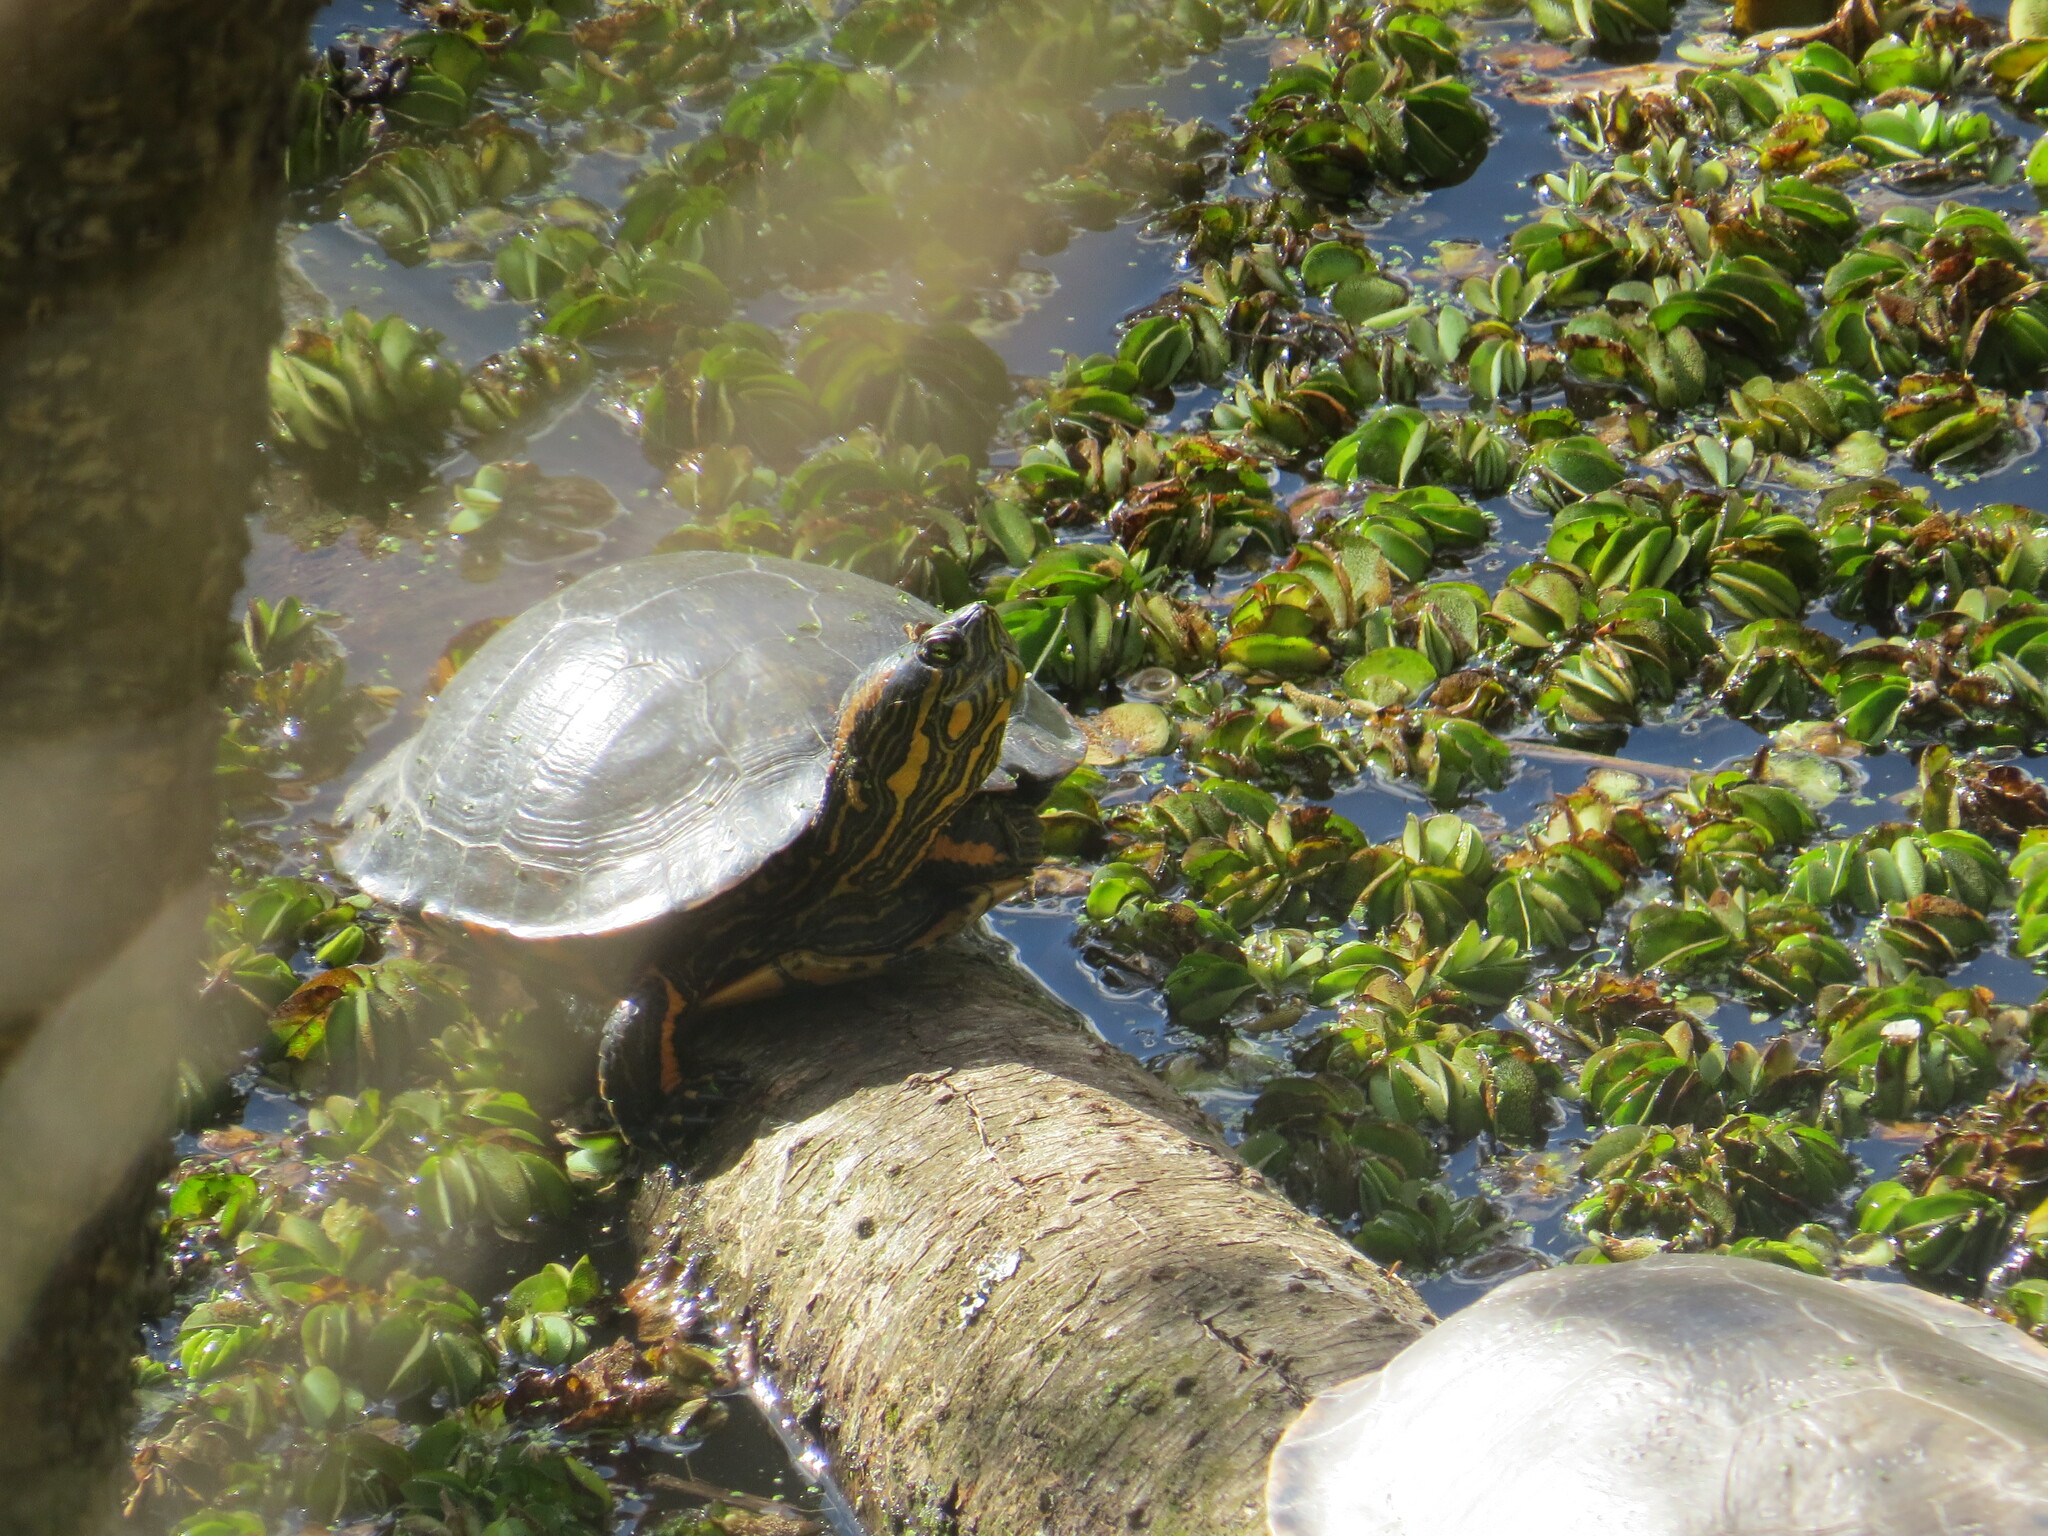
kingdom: Animalia
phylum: Chordata
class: Testudines
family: Emydidae
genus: Trachemys
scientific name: Trachemys dorbigni
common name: Black-bellied slider
